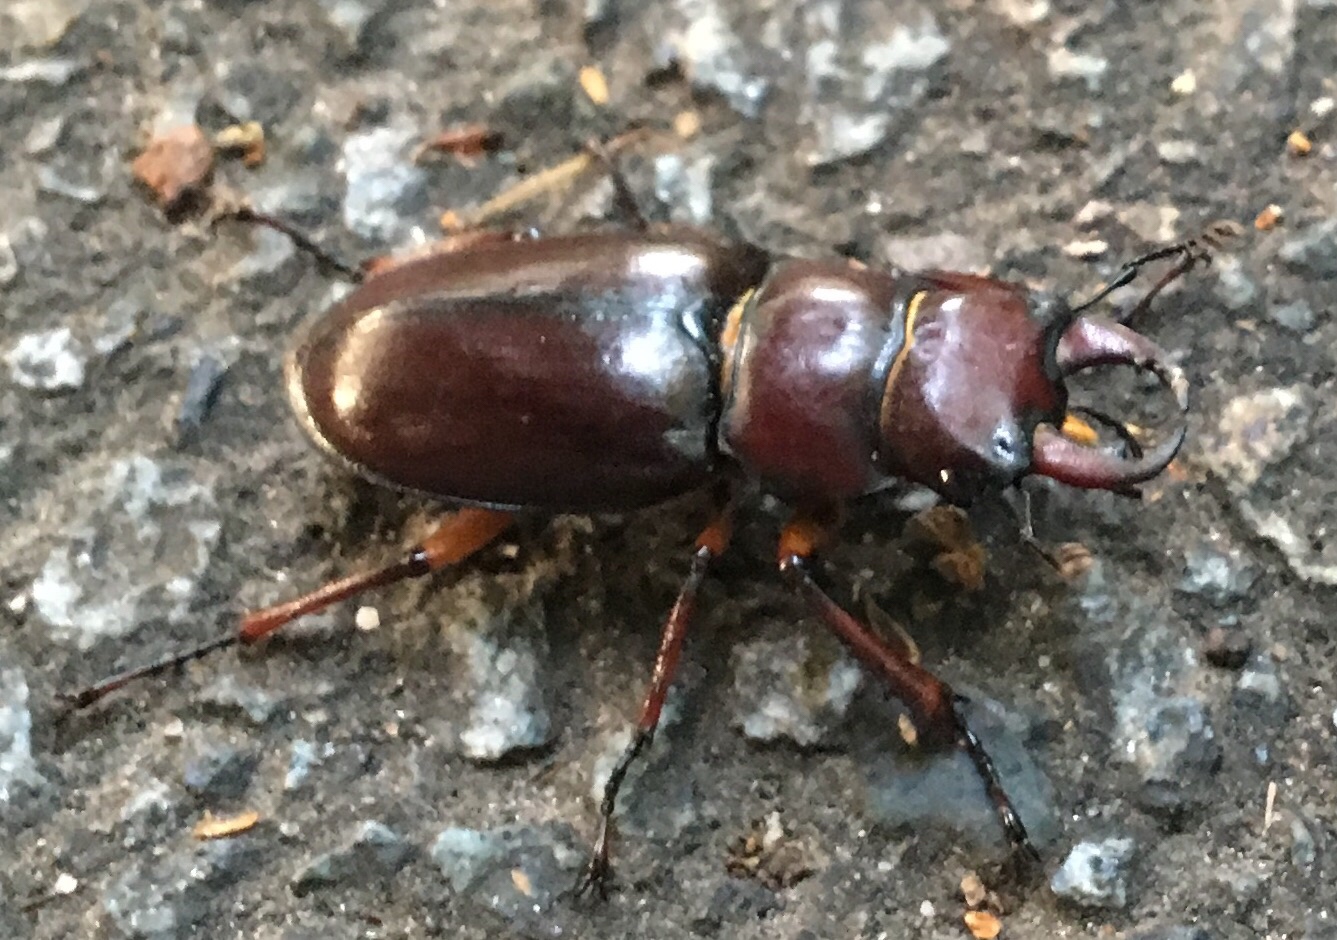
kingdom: Animalia
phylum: Arthropoda
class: Insecta
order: Coleoptera
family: Lucanidae
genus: Lucanus
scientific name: Lucanus capreolus
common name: Stag beetle
